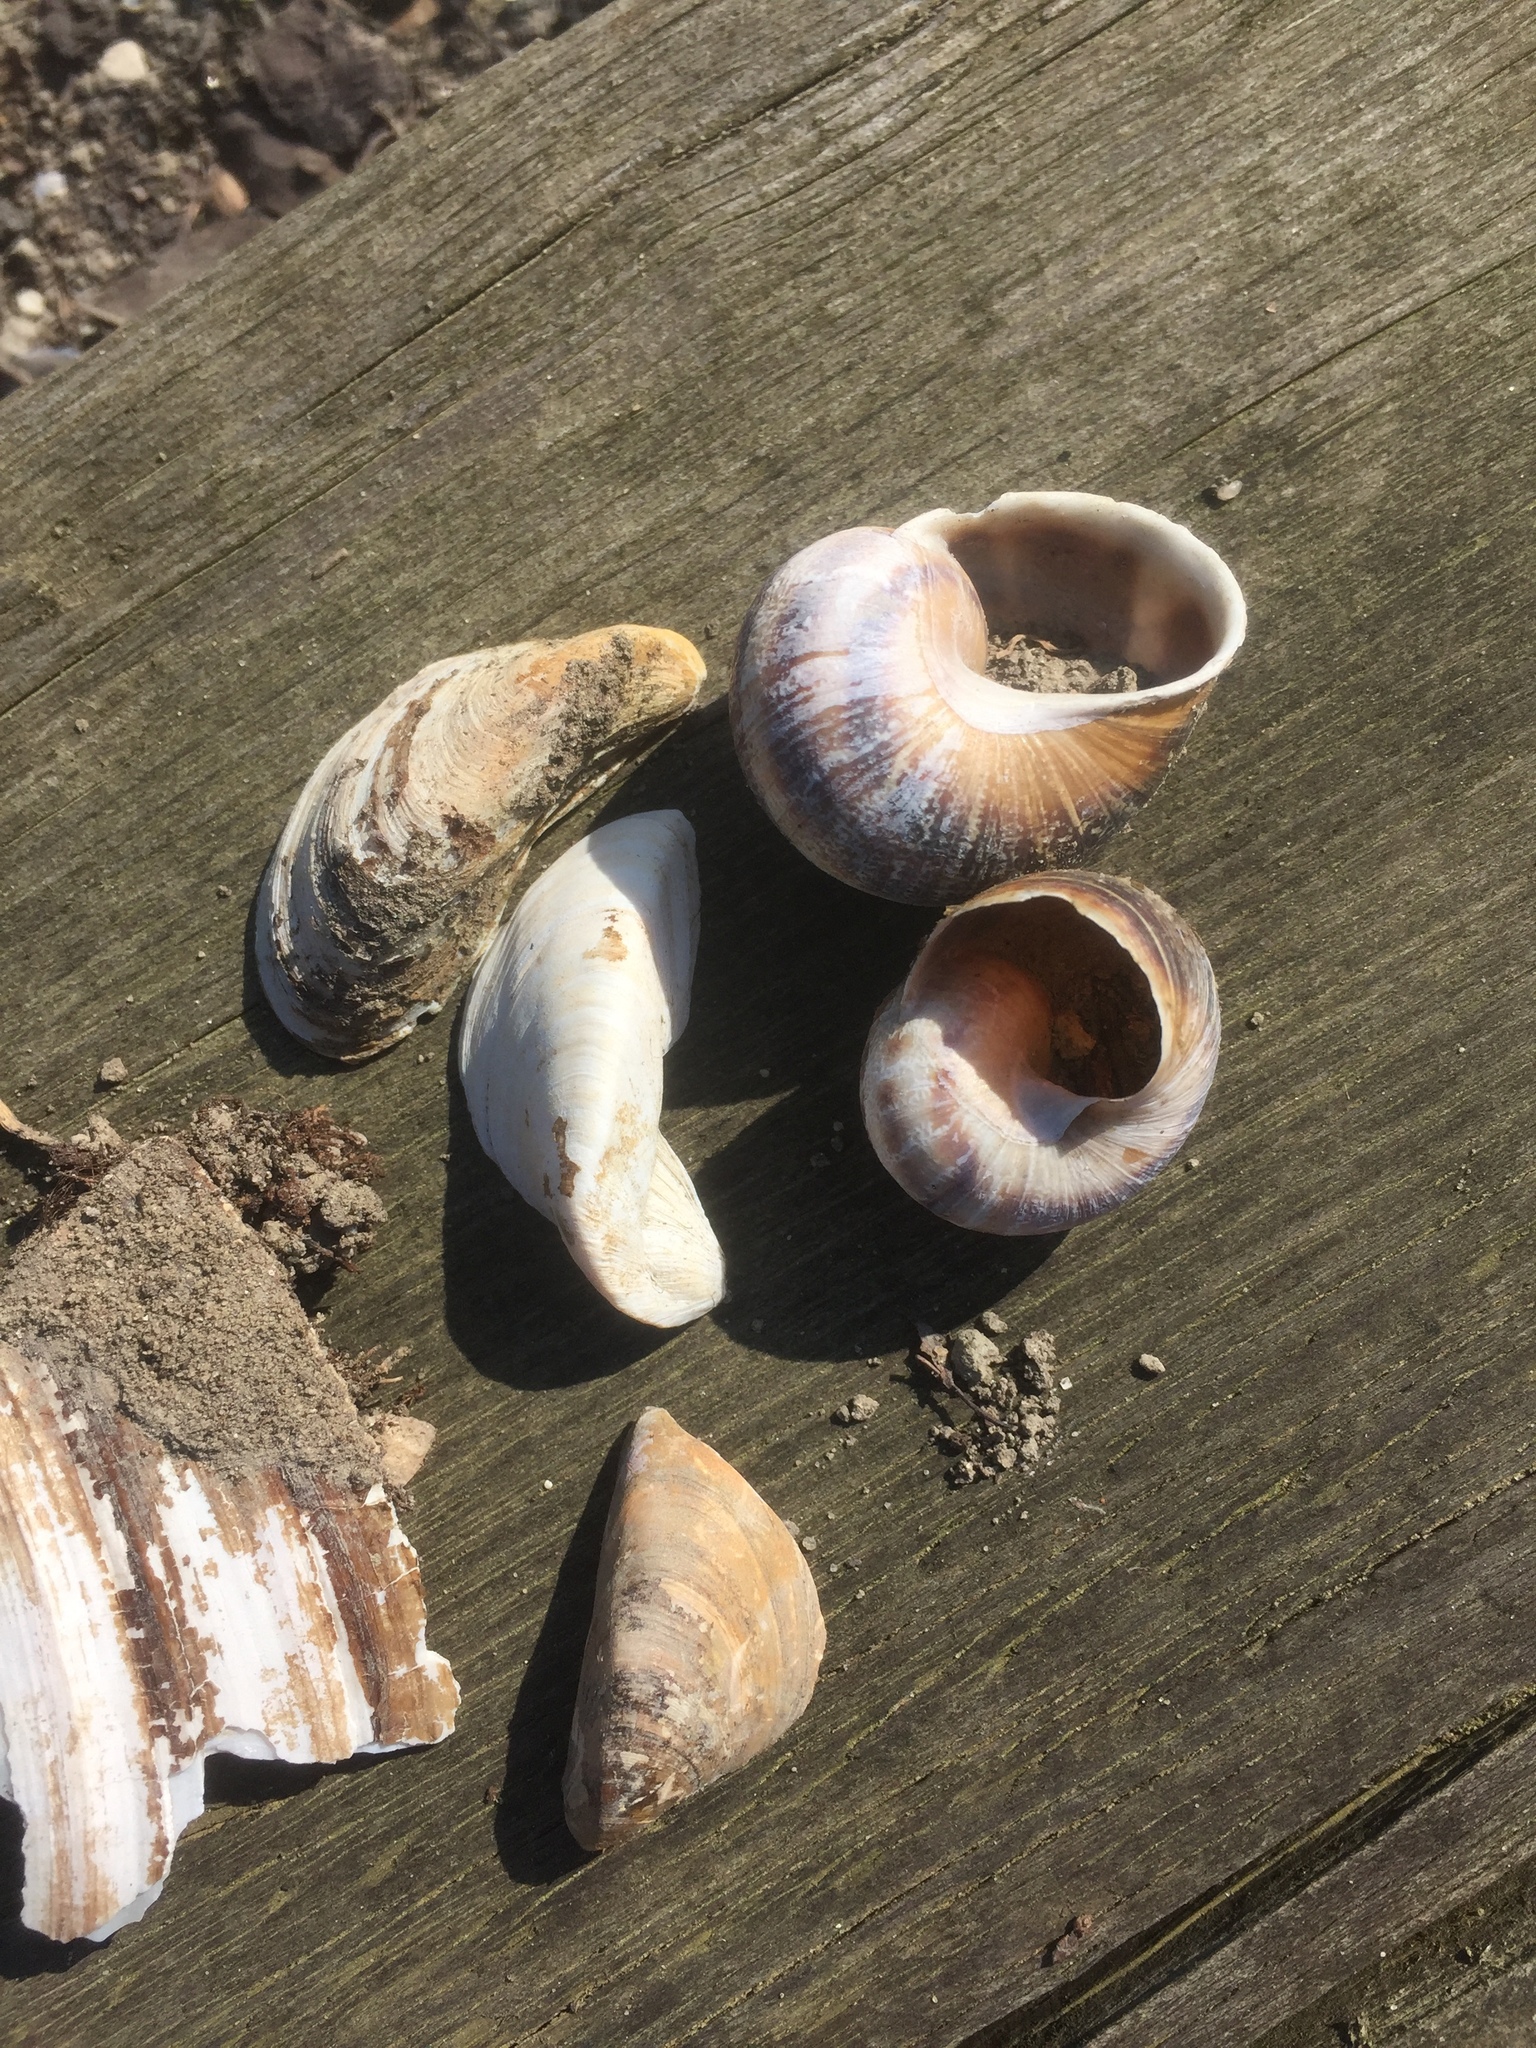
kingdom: Animalia
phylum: Mollusca
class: Bivalvia
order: Myida
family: Dreissenidae
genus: Dreissena
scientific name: Dreissena polymorpha
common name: Zebra mussel
